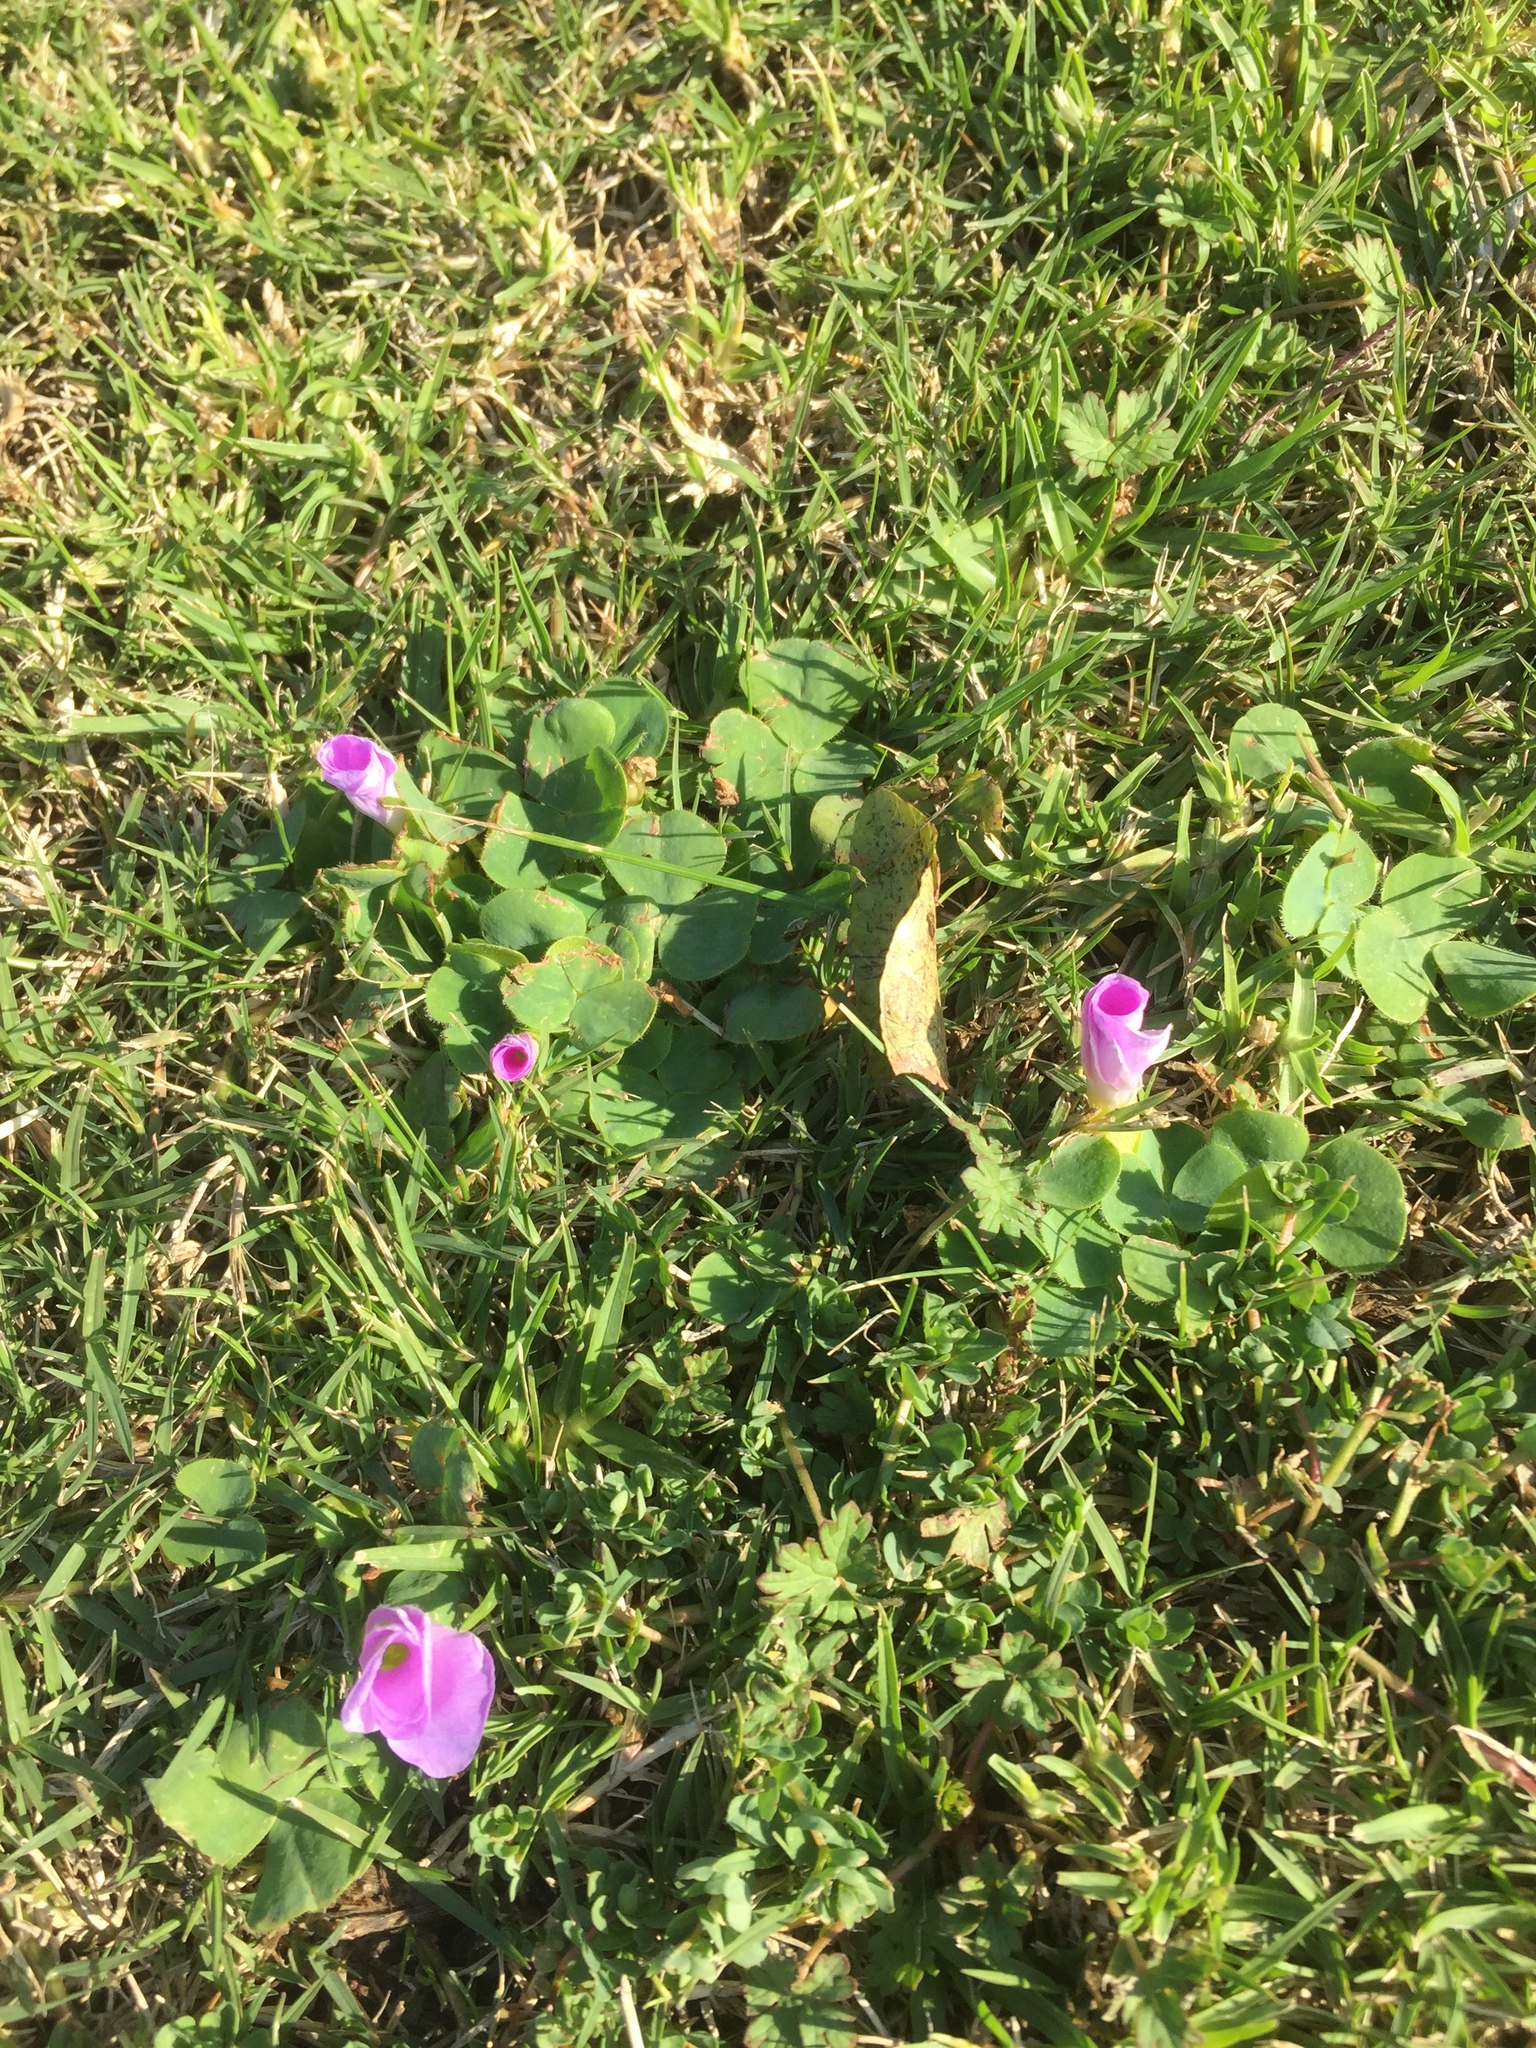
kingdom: Plantae
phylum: Tracheophyta
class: Magnoliopsida
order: Oxalidales
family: Oxalidaceae
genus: Oxalis
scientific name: Oxalis purpurea
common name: Purple woodsorrel
